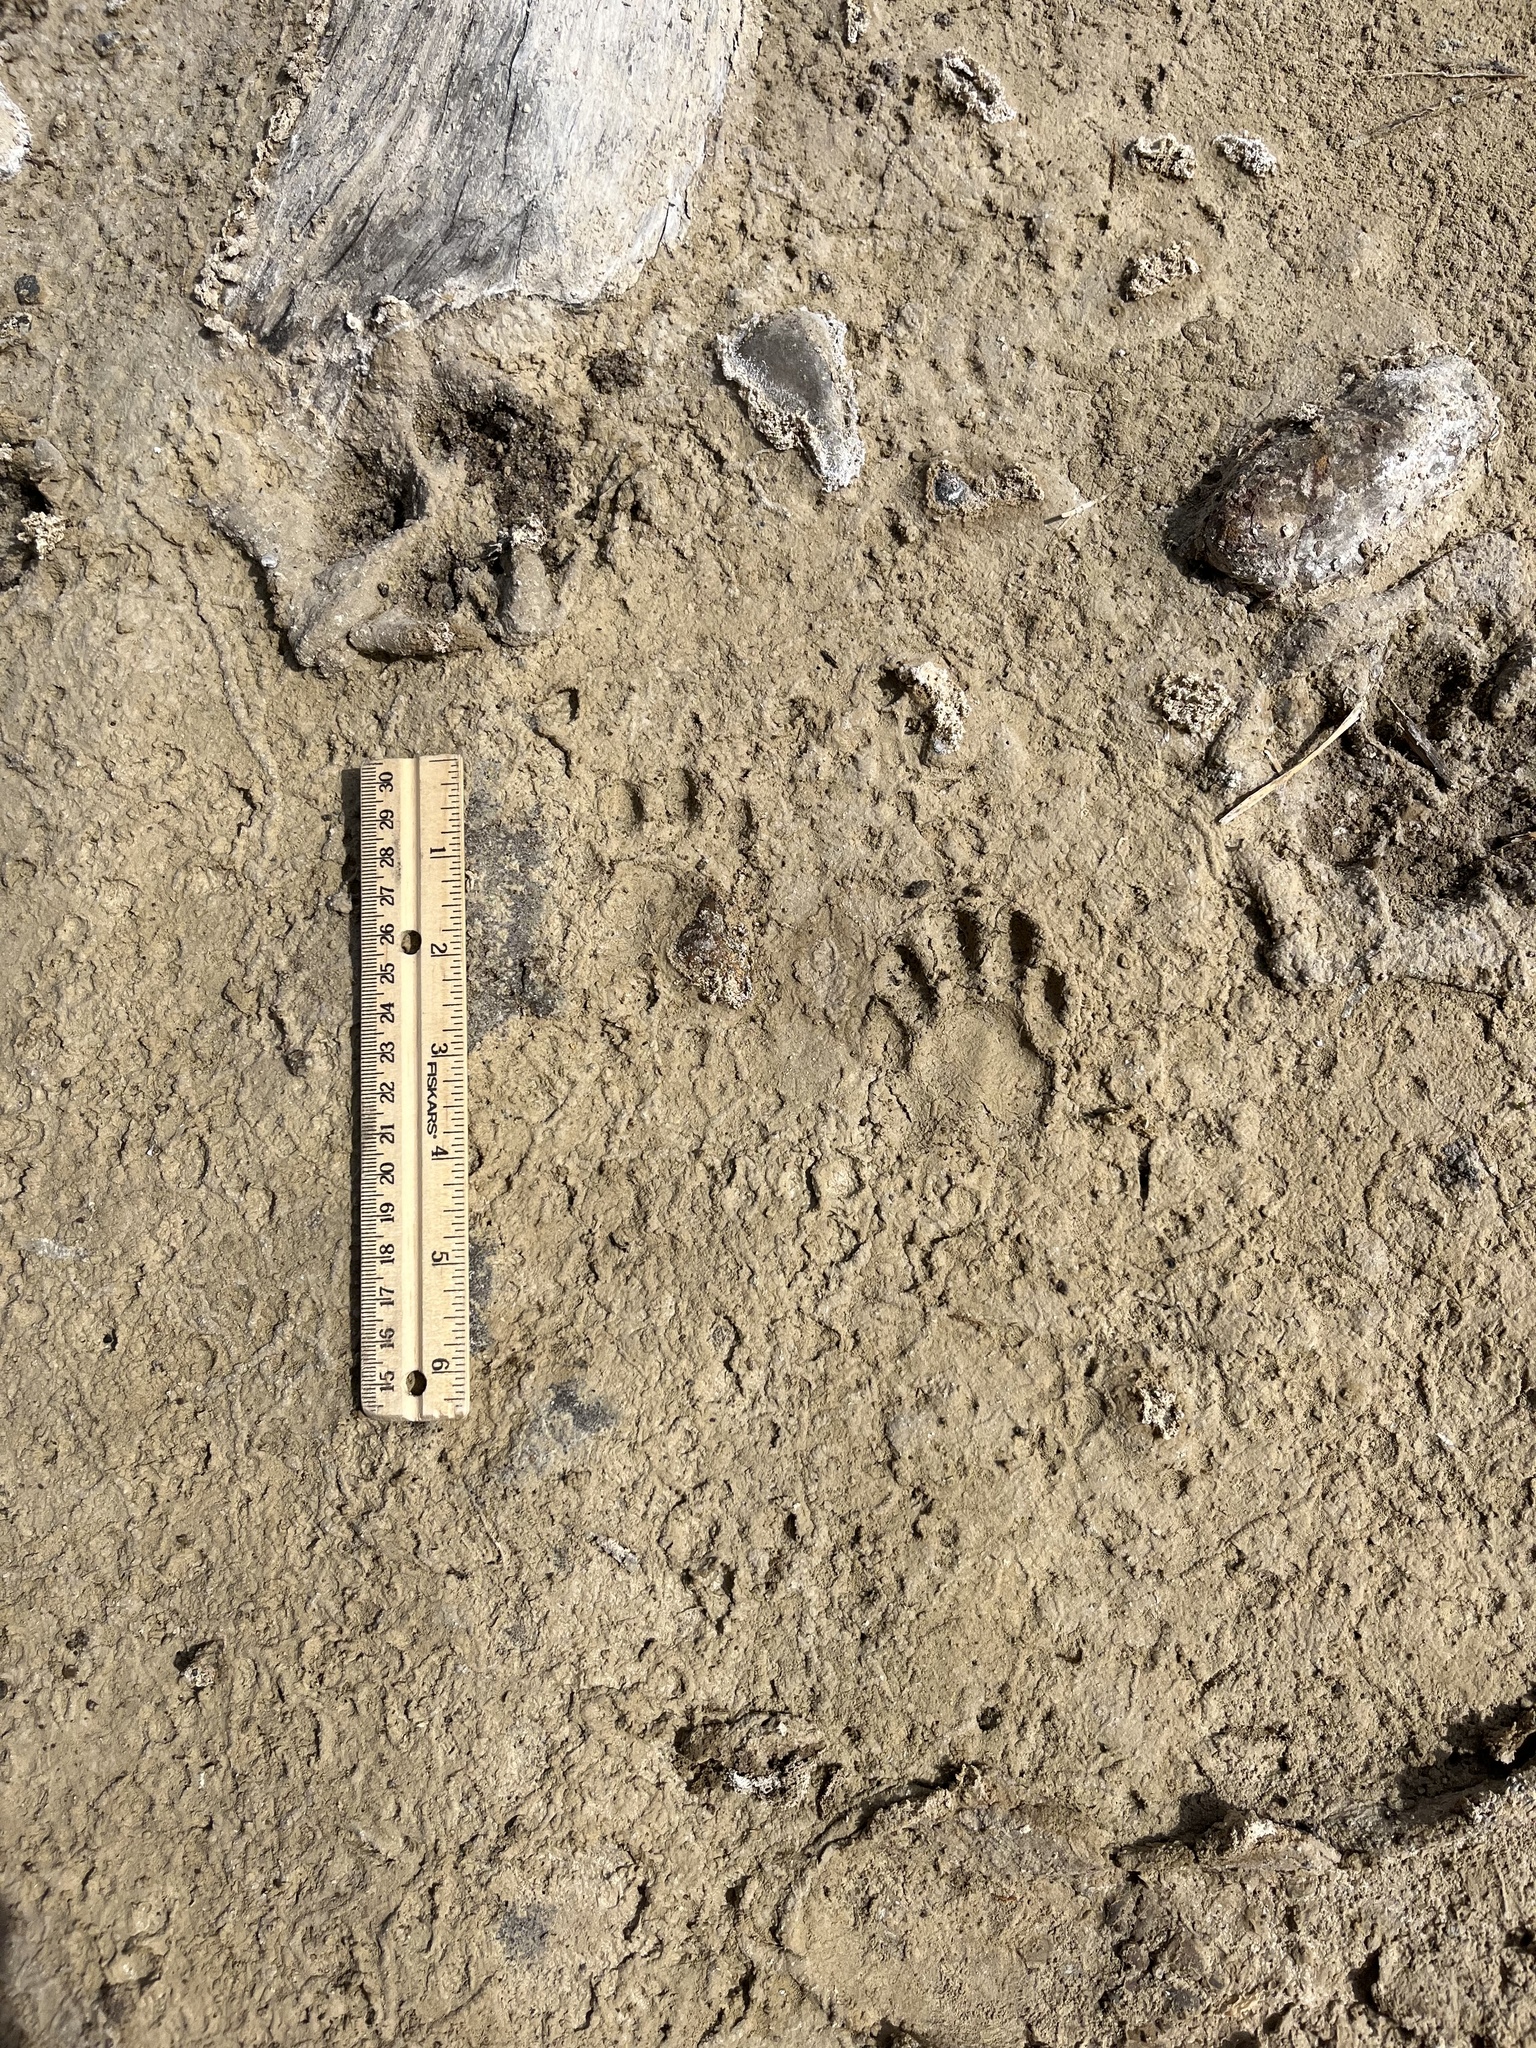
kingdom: Animalia
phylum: Chordata
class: Mammalia
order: Carnivora
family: Procyonidae
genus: Procyon
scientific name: Procyon lotor
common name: Raccoon
